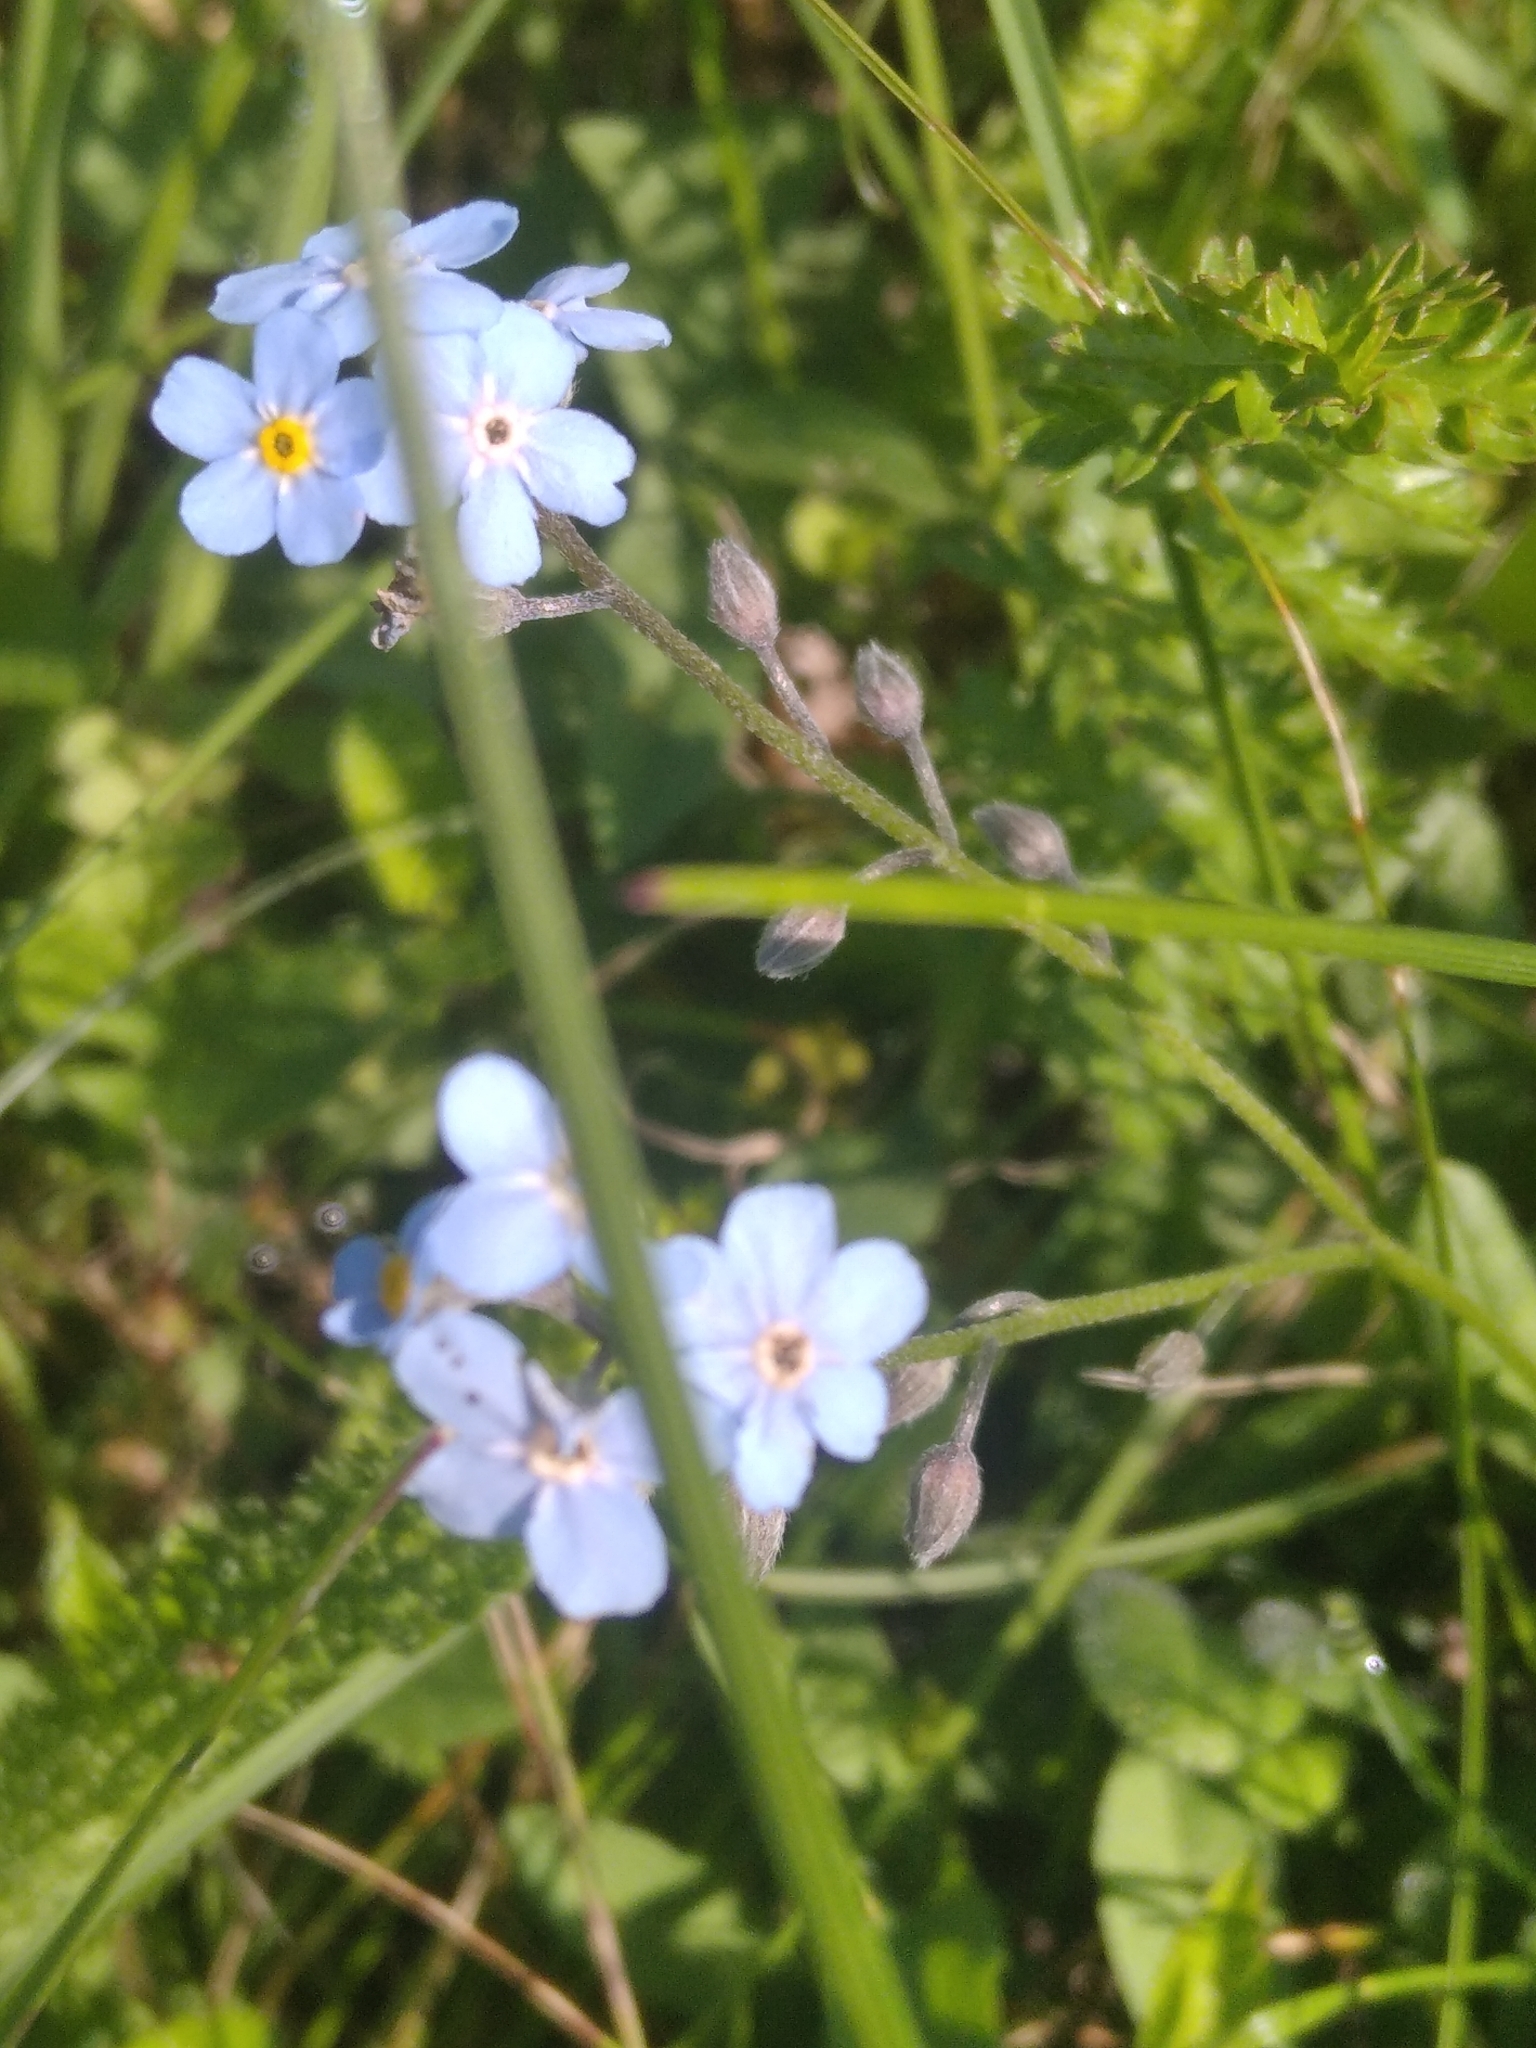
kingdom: Plantae
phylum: Tracheophyta
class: Magnoliopsida
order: Boraginales
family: Boraginaceae
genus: Myosotis
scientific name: Myosotis sylvatica
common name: Wood forget-me-not
